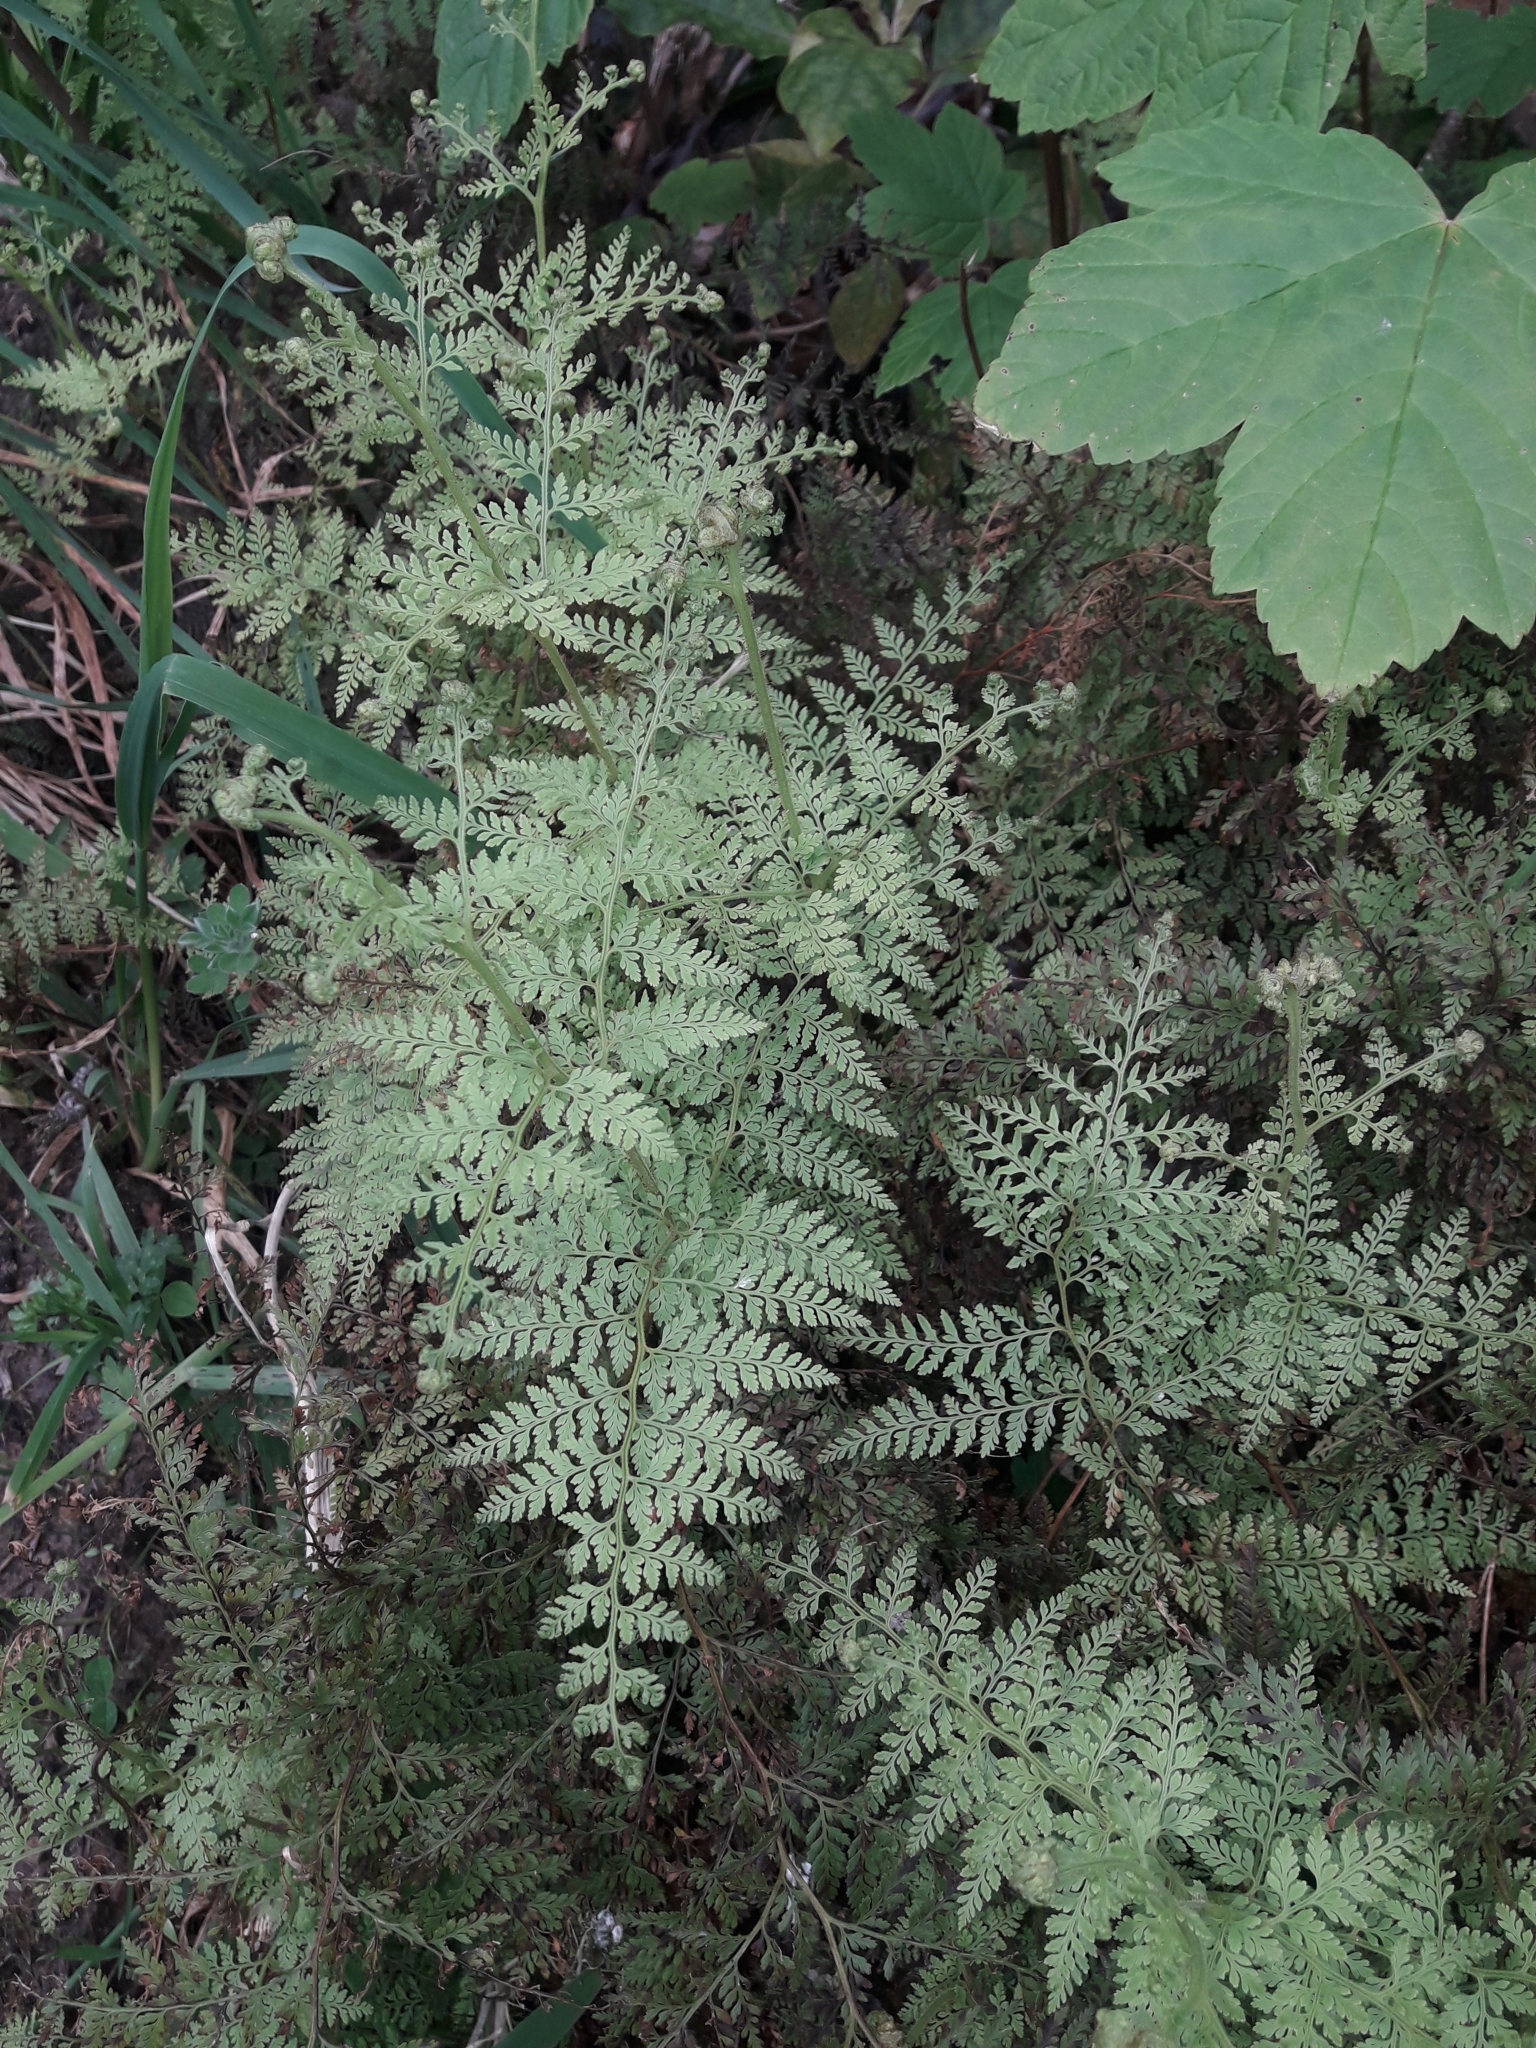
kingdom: Plantae
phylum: Tracheophyta
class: Polypodiopsida
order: Polypodiales
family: Dennstaedtiaceae
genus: Paesia
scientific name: Paesia scaberula
